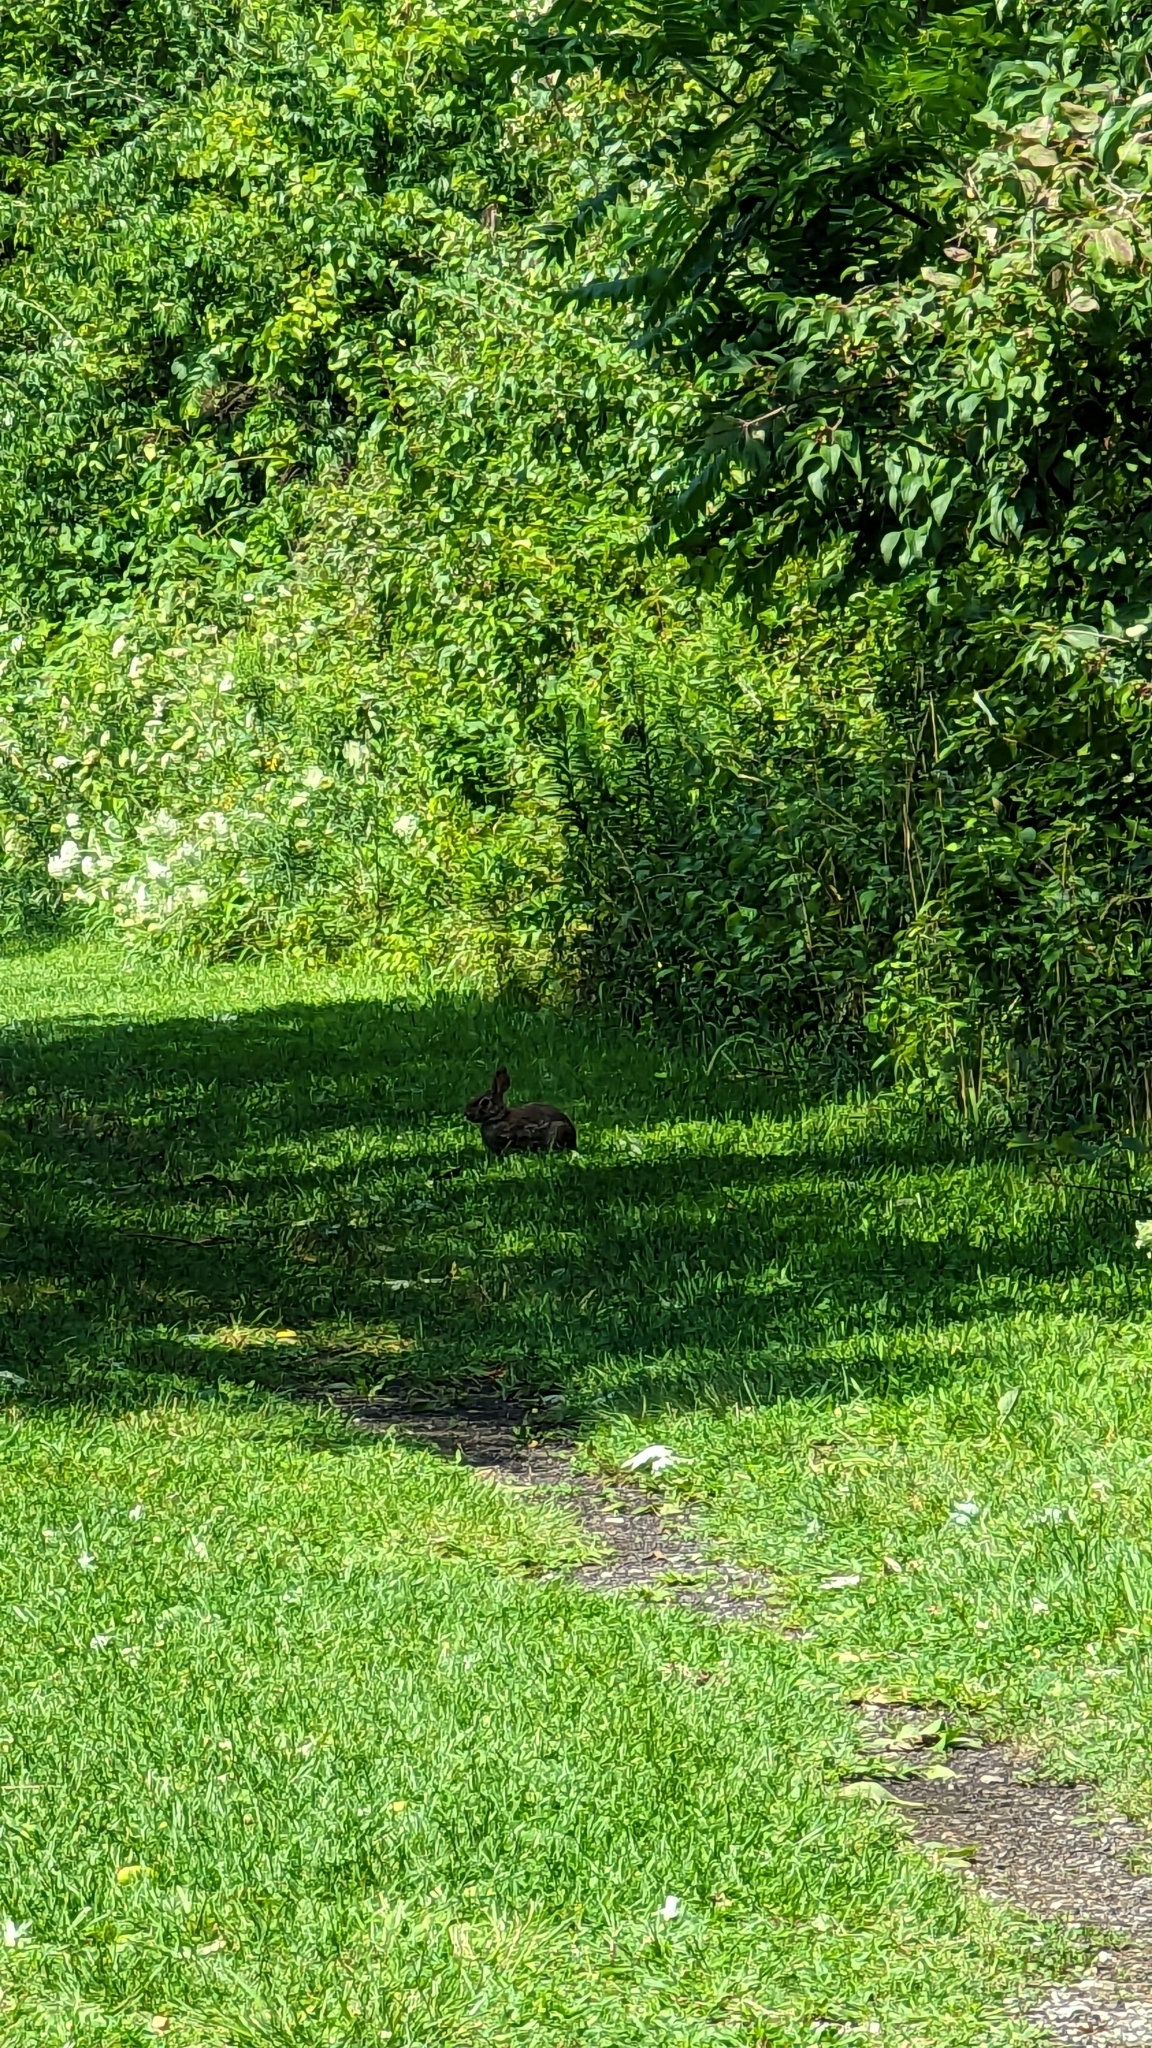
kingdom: Animalia
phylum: Chordata
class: Mammalia
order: Lagomorpha
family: Leporidae
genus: Sylvilagus
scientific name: Sylvilagus floridanus
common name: Eastern cottontail
